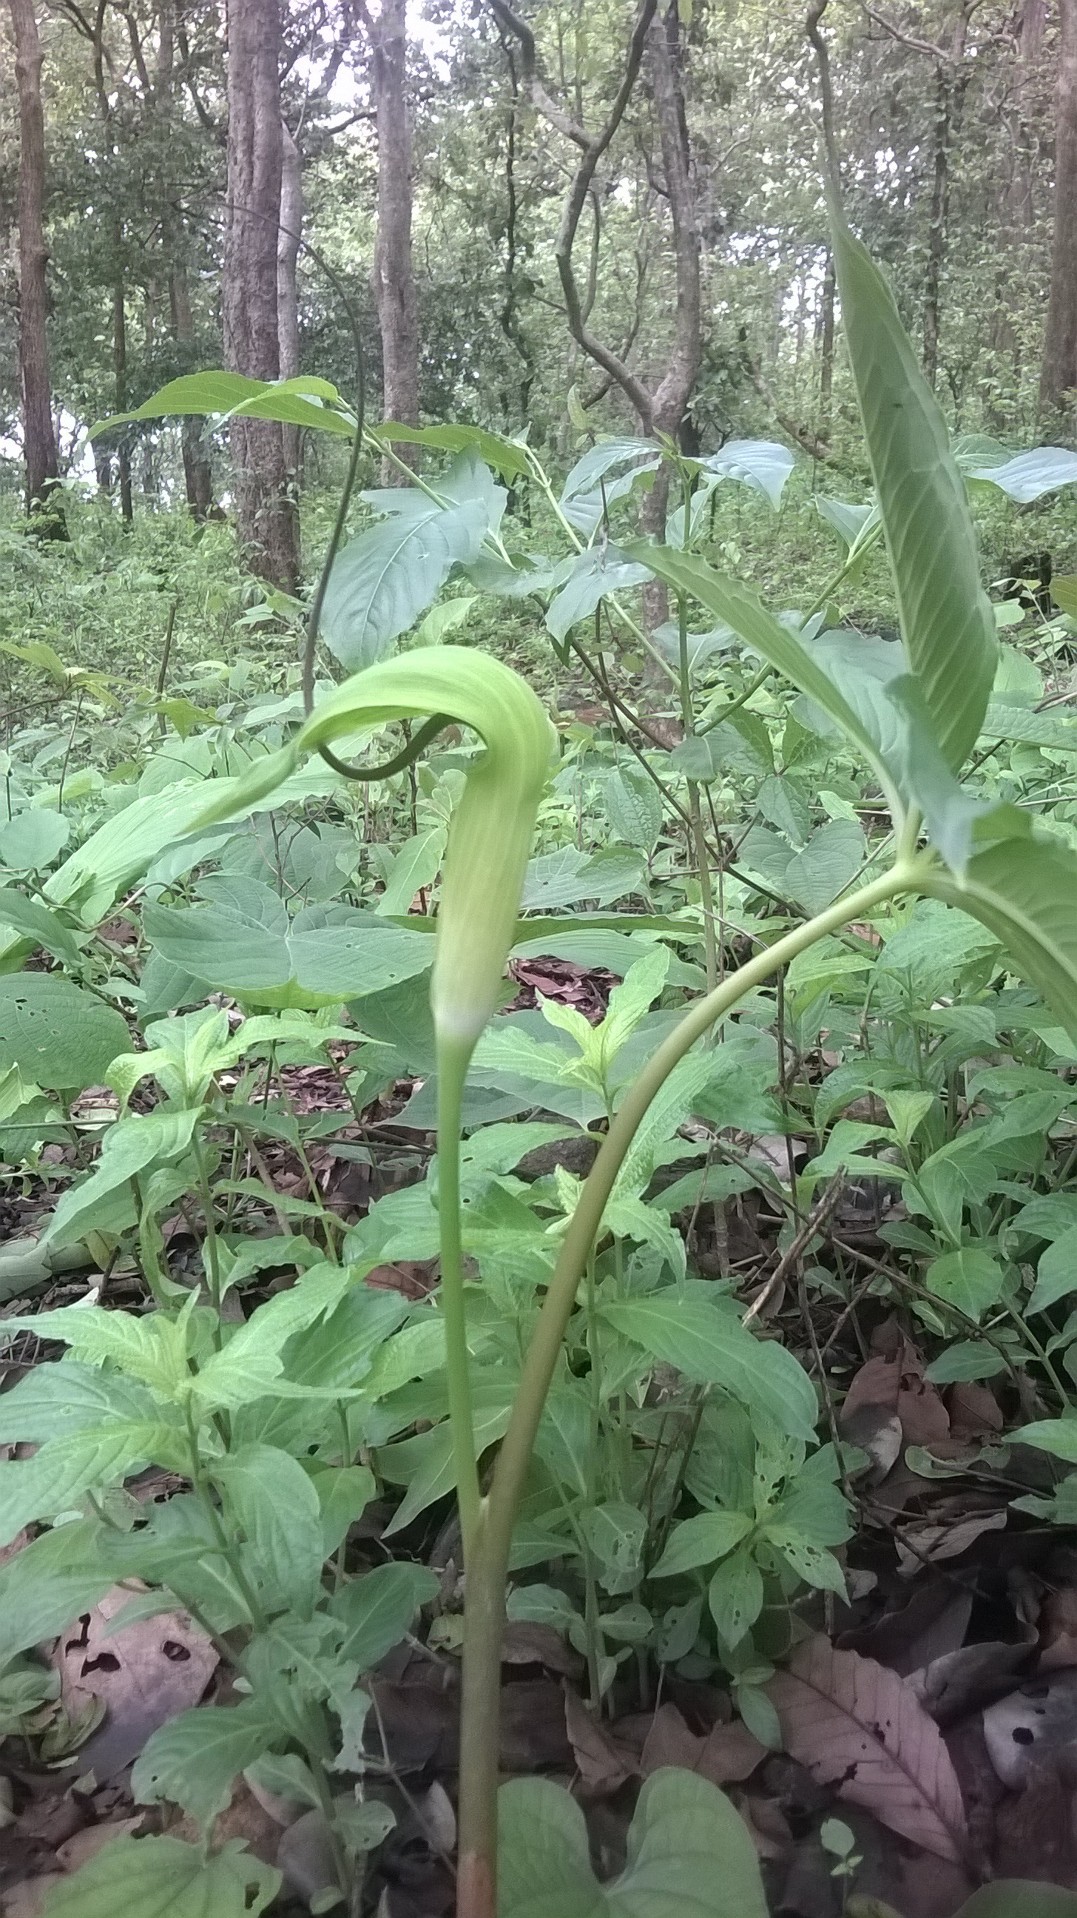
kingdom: Plantae
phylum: Tracheophyta
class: Liliopsida
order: Alismatales
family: Araceae
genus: Arisaema
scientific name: Arisaema tortuosum
